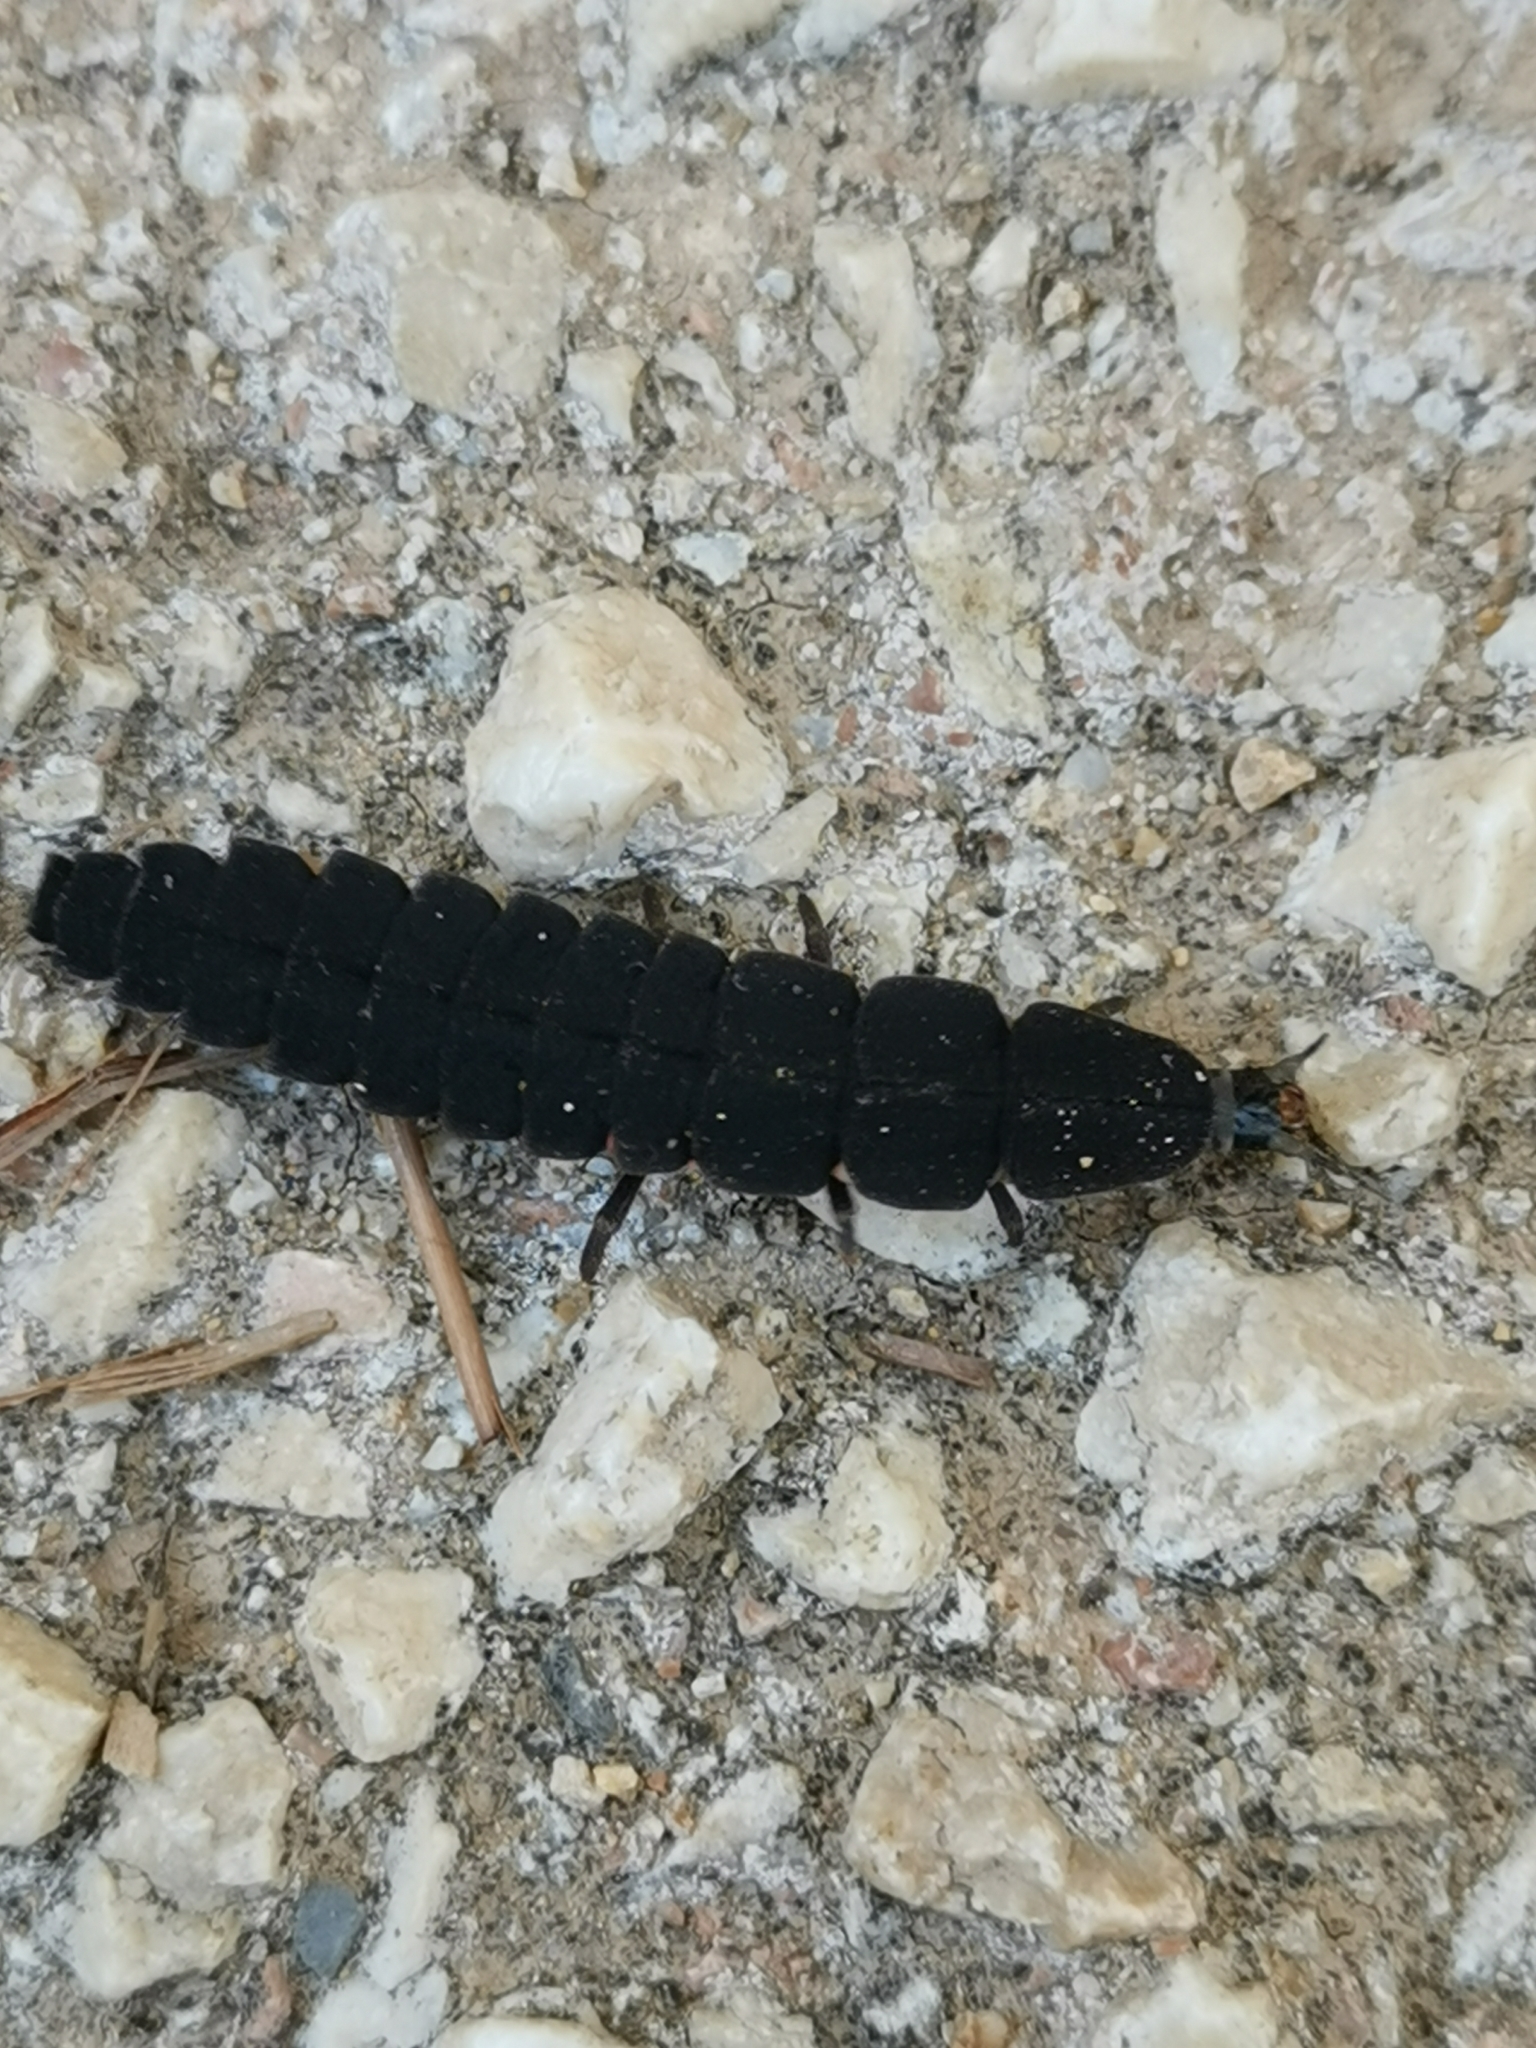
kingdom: Animalia
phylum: Arthropoda
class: Insecta
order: Coleoptera
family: Lampyridae
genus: Nyctophila
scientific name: Nyctophila reichii
